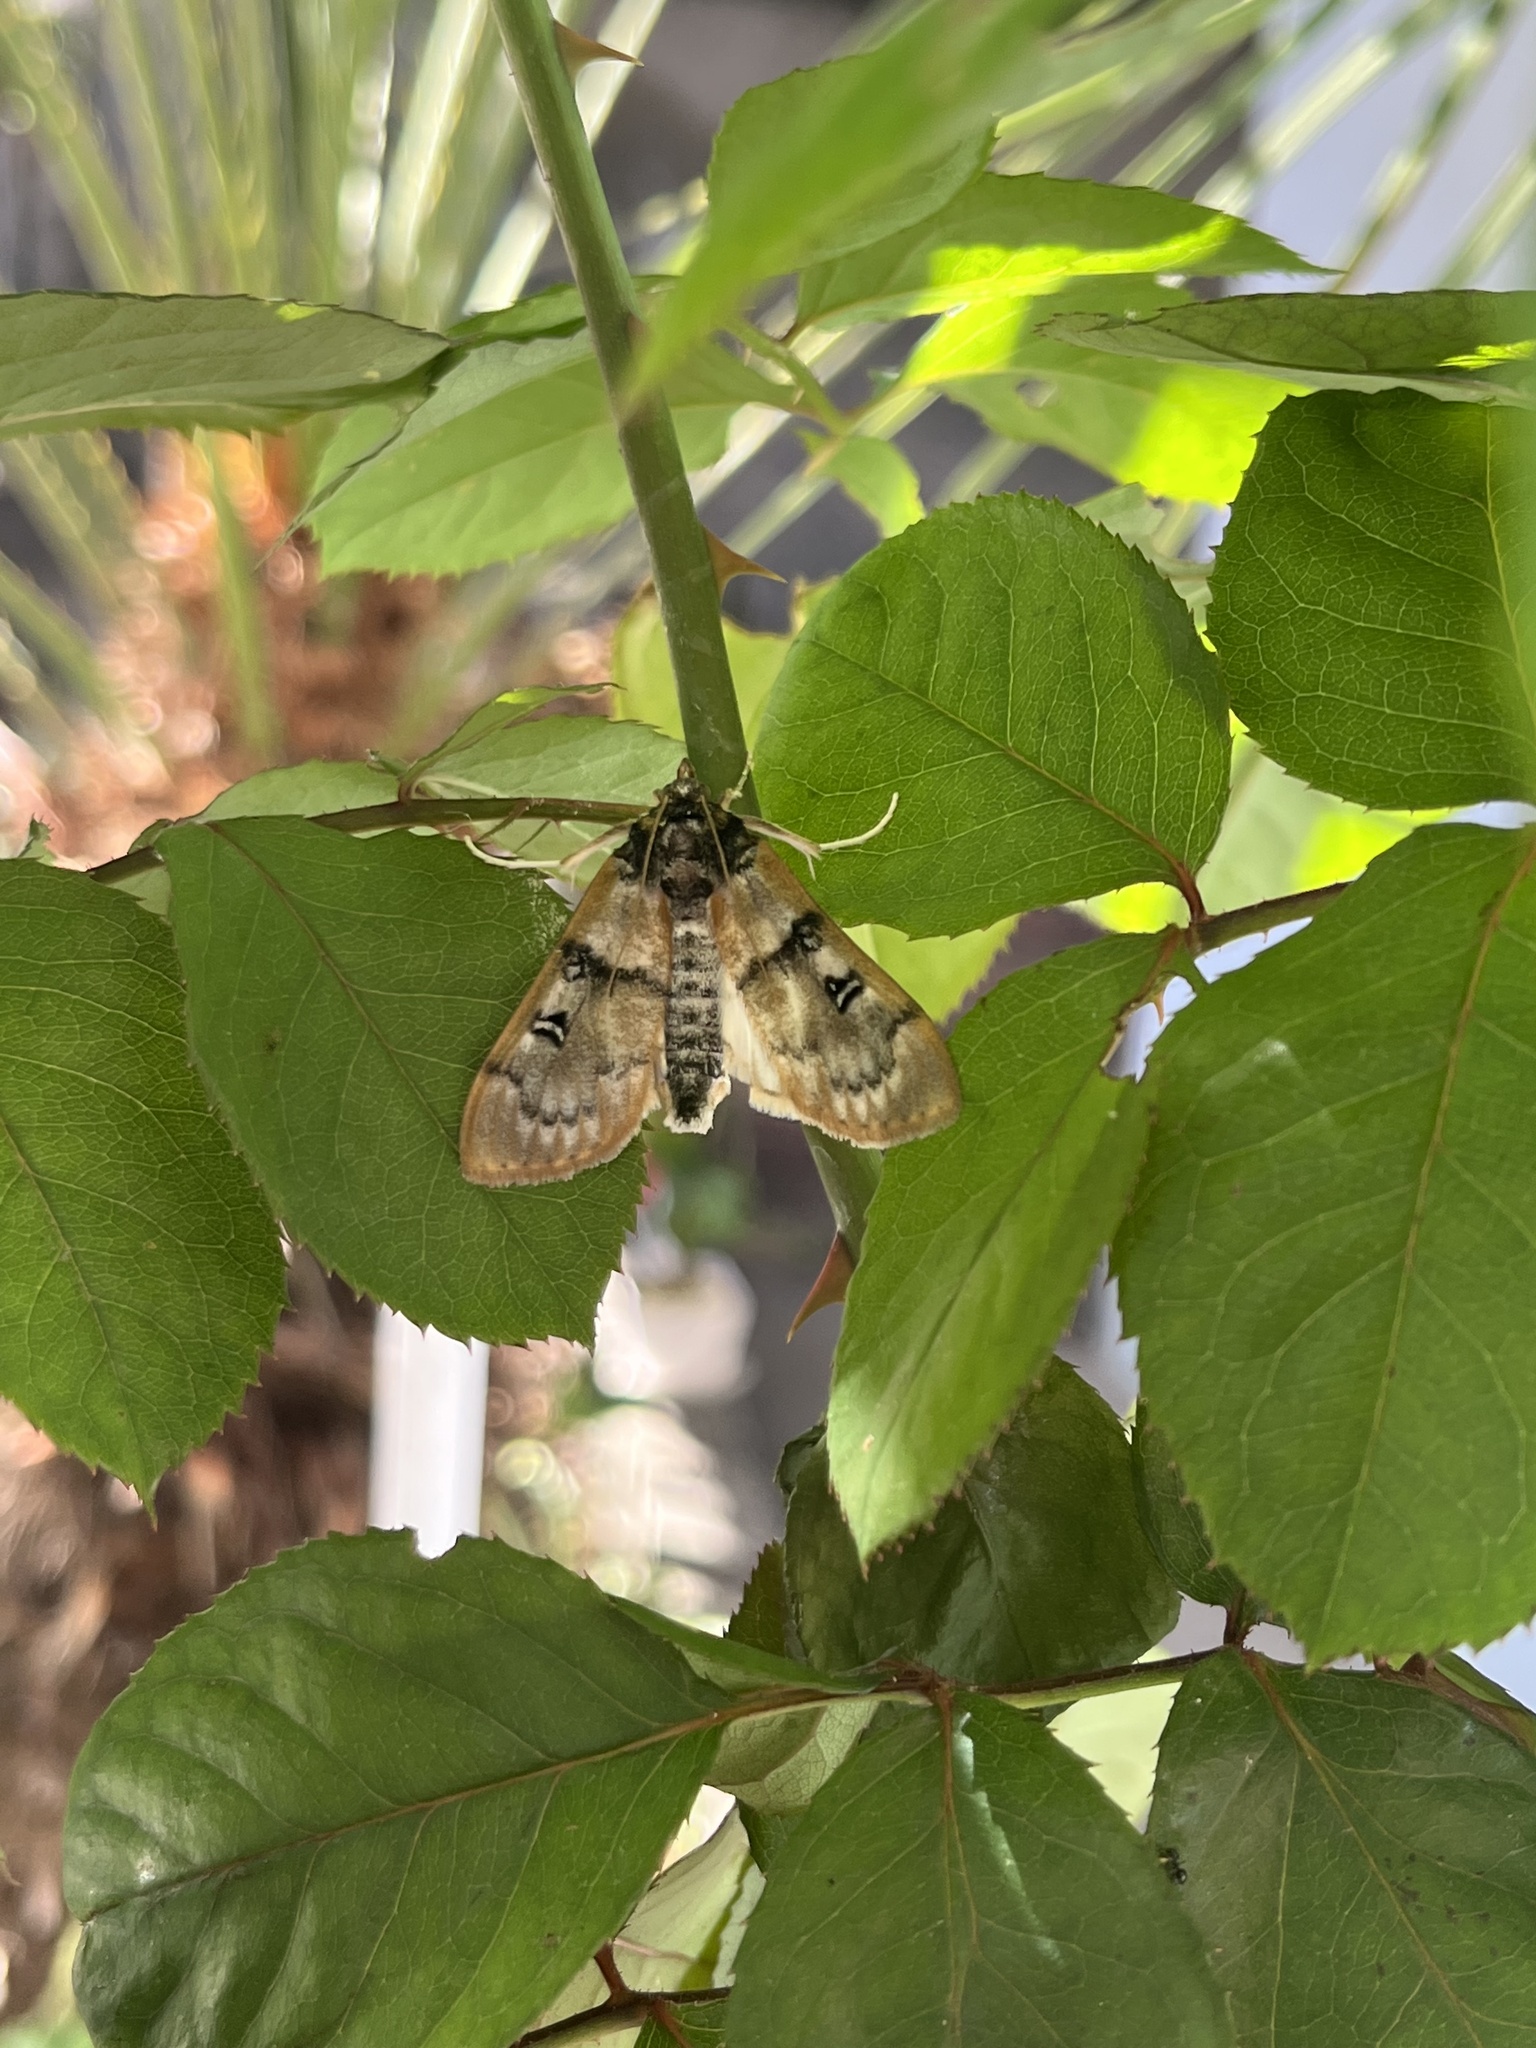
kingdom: Animalia
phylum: Arthropoda
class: Insecta
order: Lepidoptera
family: Crambidae
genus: Laniifera
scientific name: Laniifera cyclades
